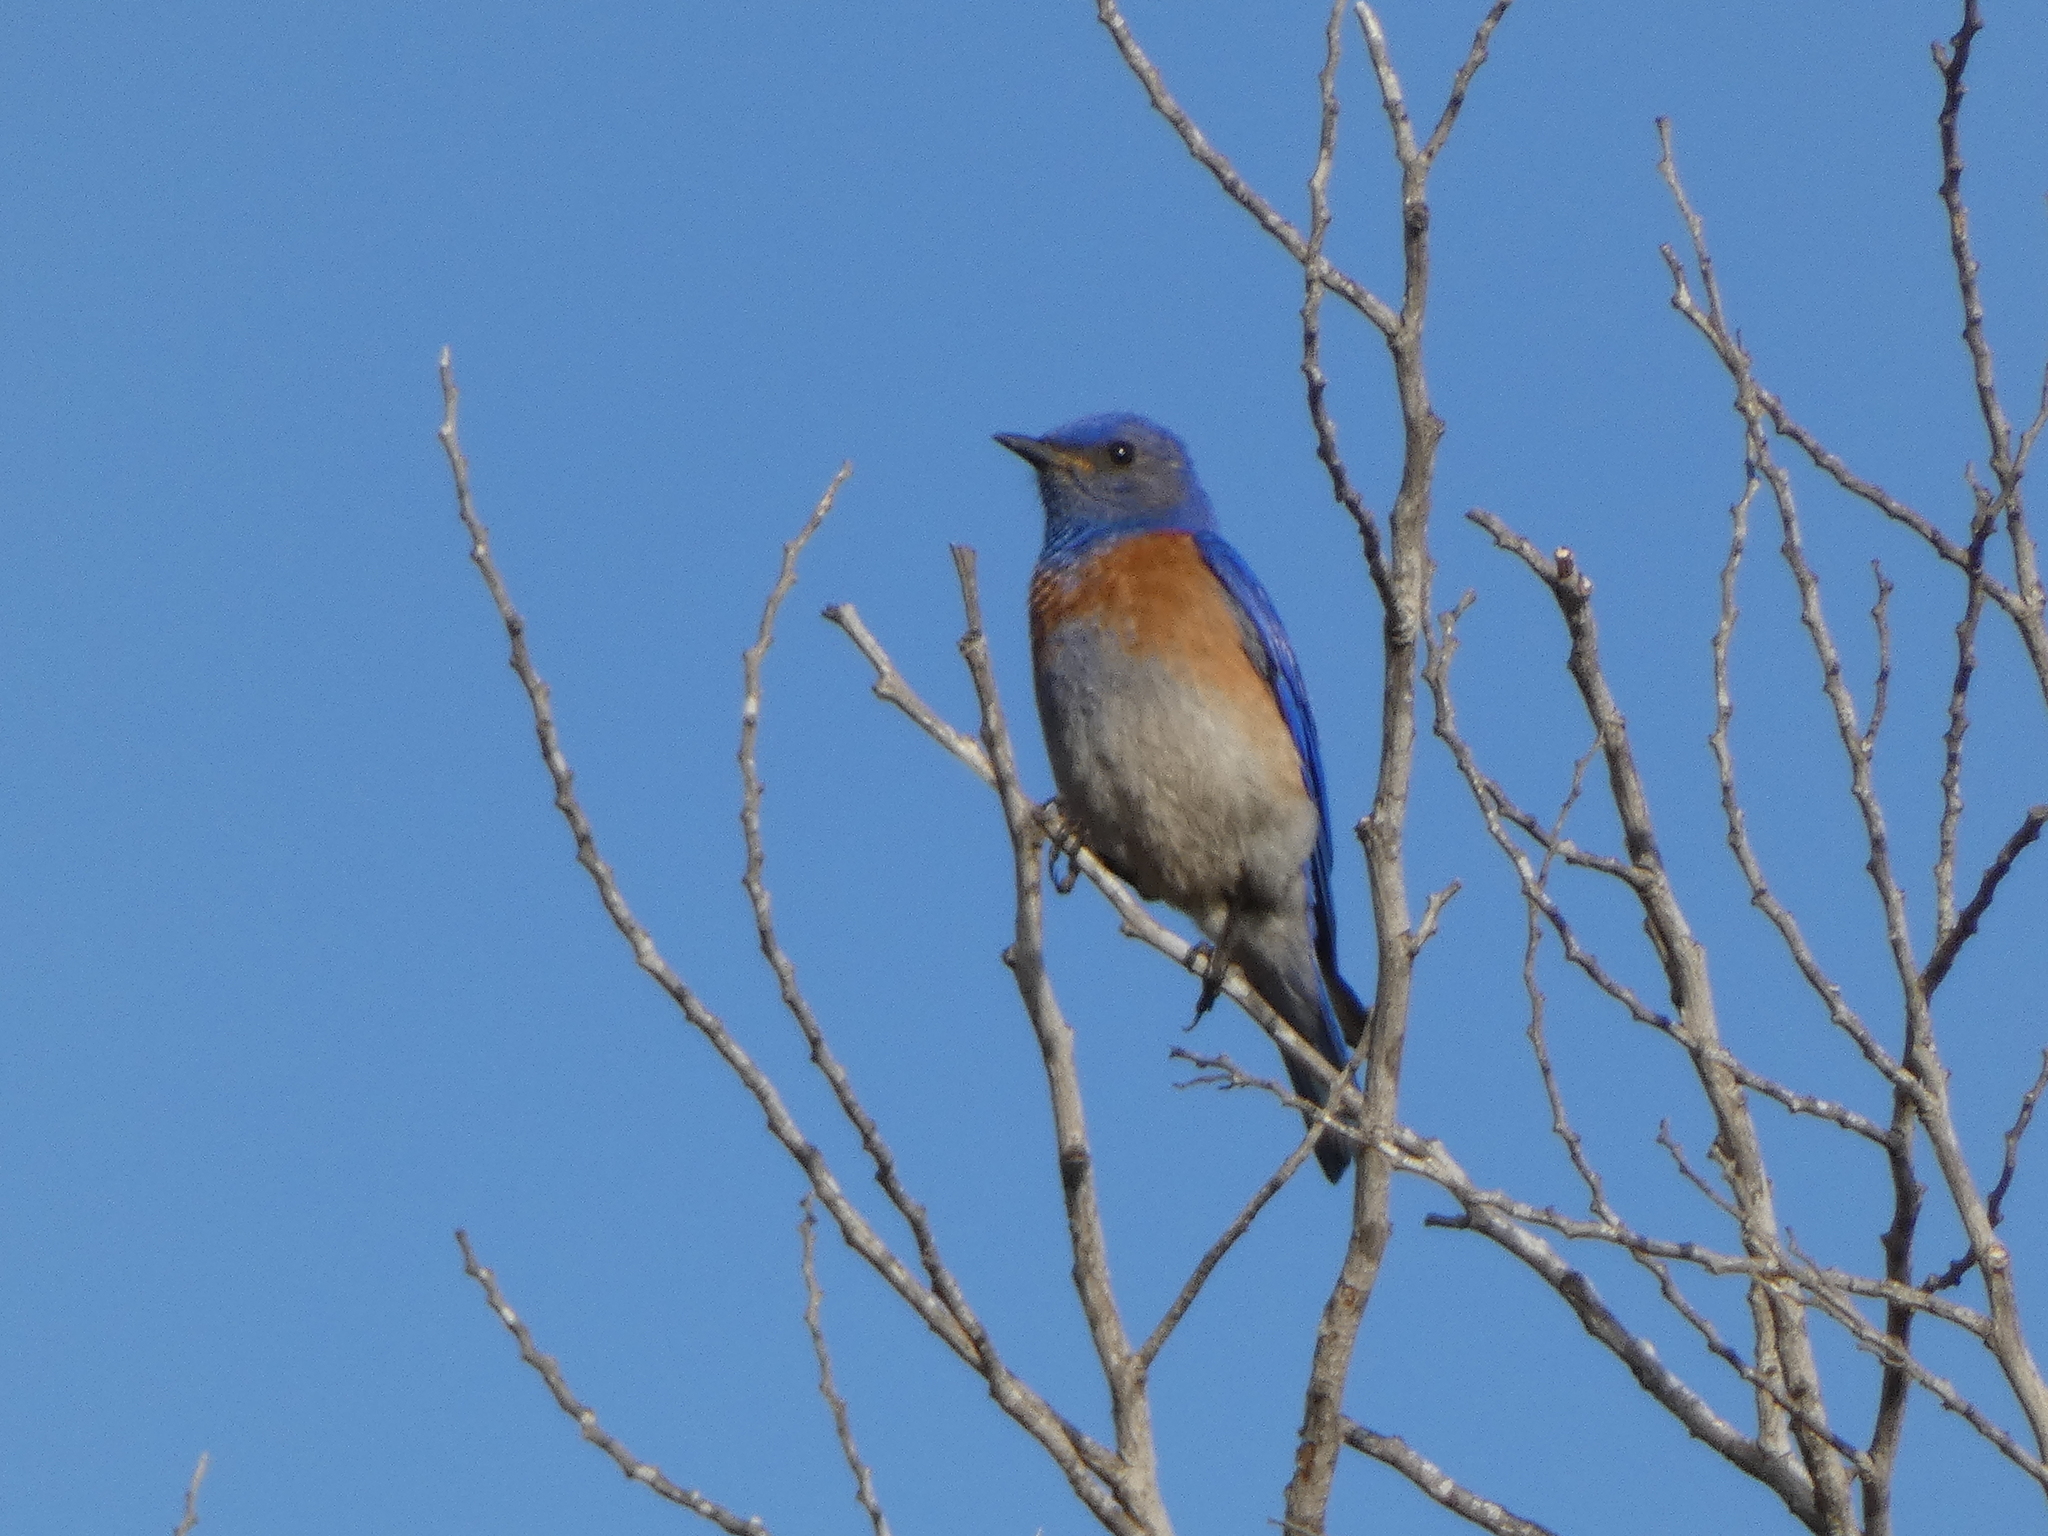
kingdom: Animalia
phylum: Chordata
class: Aves
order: Passeriformes
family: Turdidae
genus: Sialia
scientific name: Sialia mexicana
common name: Western bluebird
